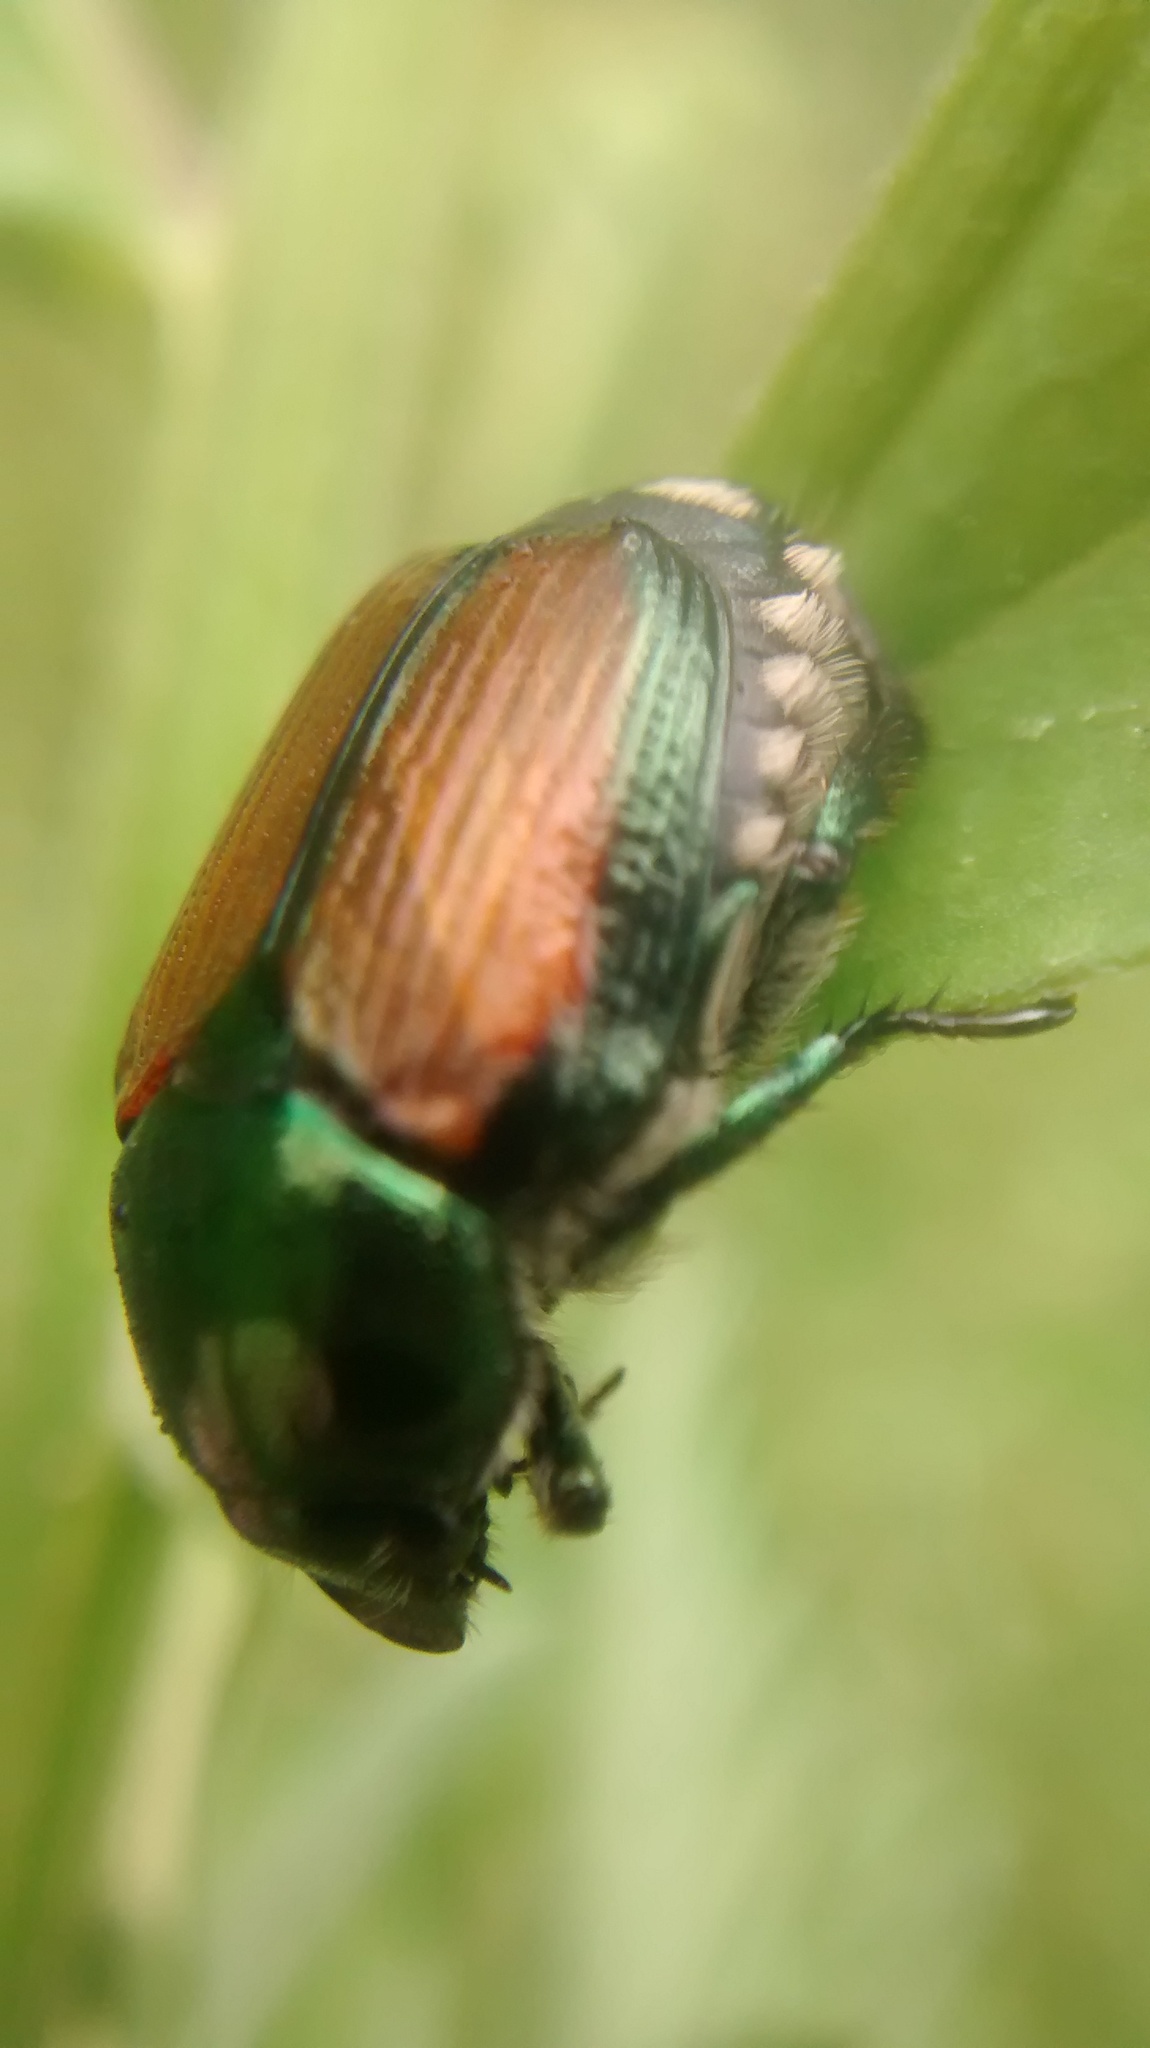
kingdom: Animalia
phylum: Arthropoda
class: Insecta
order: Coleoptera
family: Scarabaeidae
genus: Popillia
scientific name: Popillia japonica
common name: Japanese beetle
